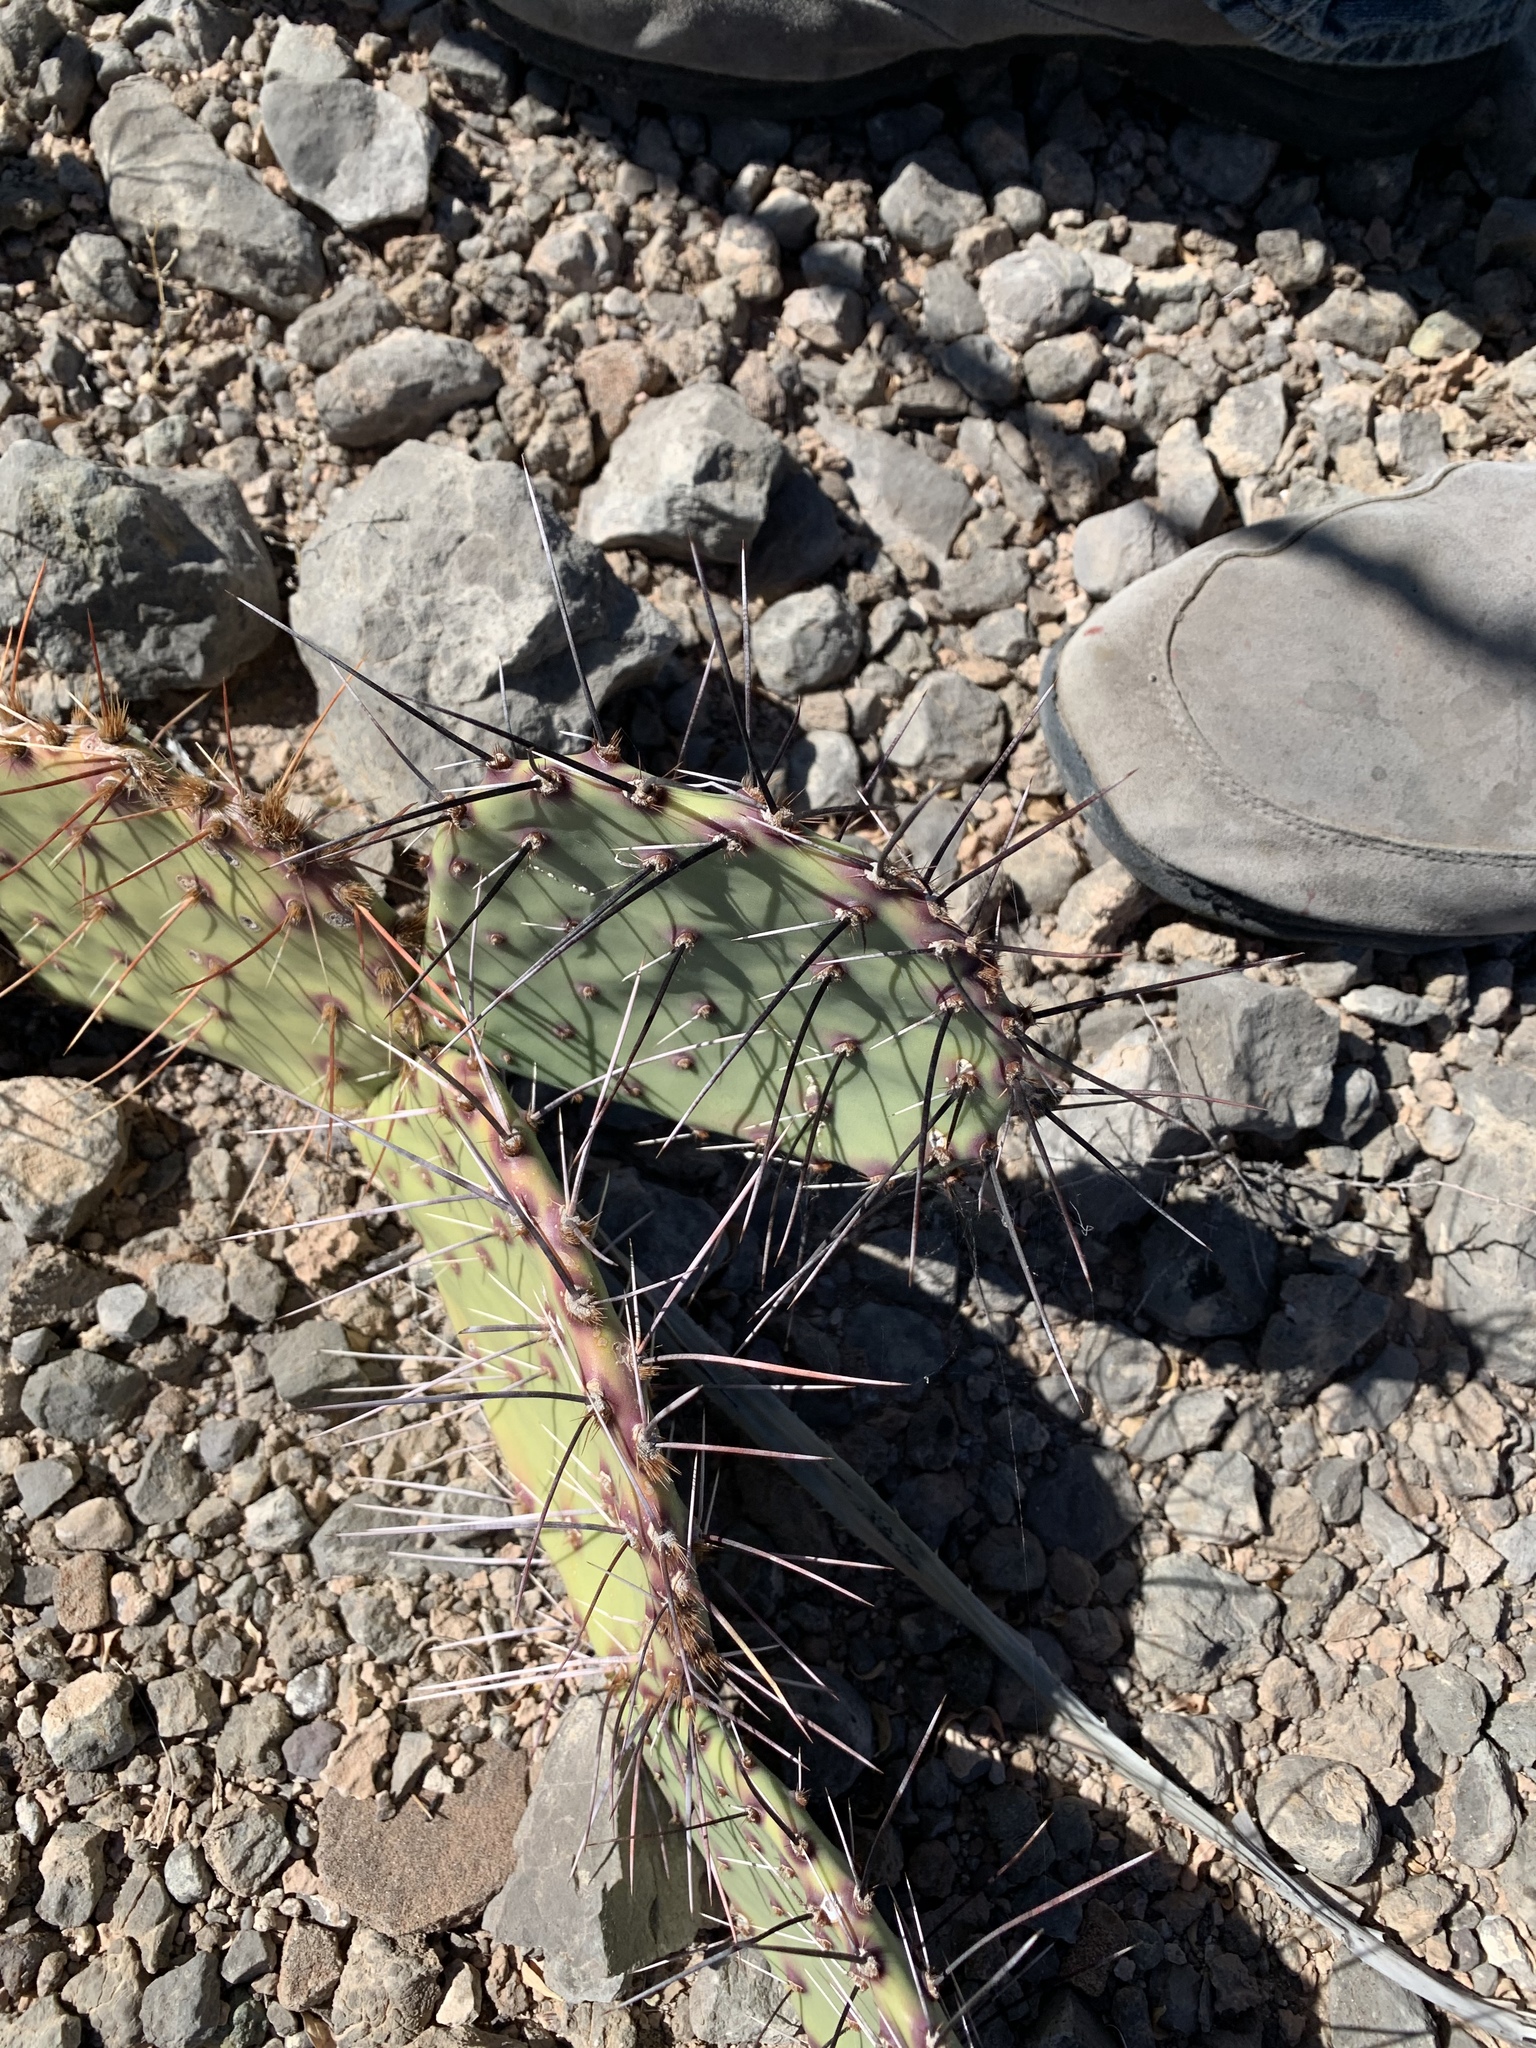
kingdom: Plantae
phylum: Tracheophyta
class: Magnoliopsida
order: Caryophyllales
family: Cactaceae
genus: Opuntia
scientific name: Opuntia phaeacantha
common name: New mexico prickly-pear
